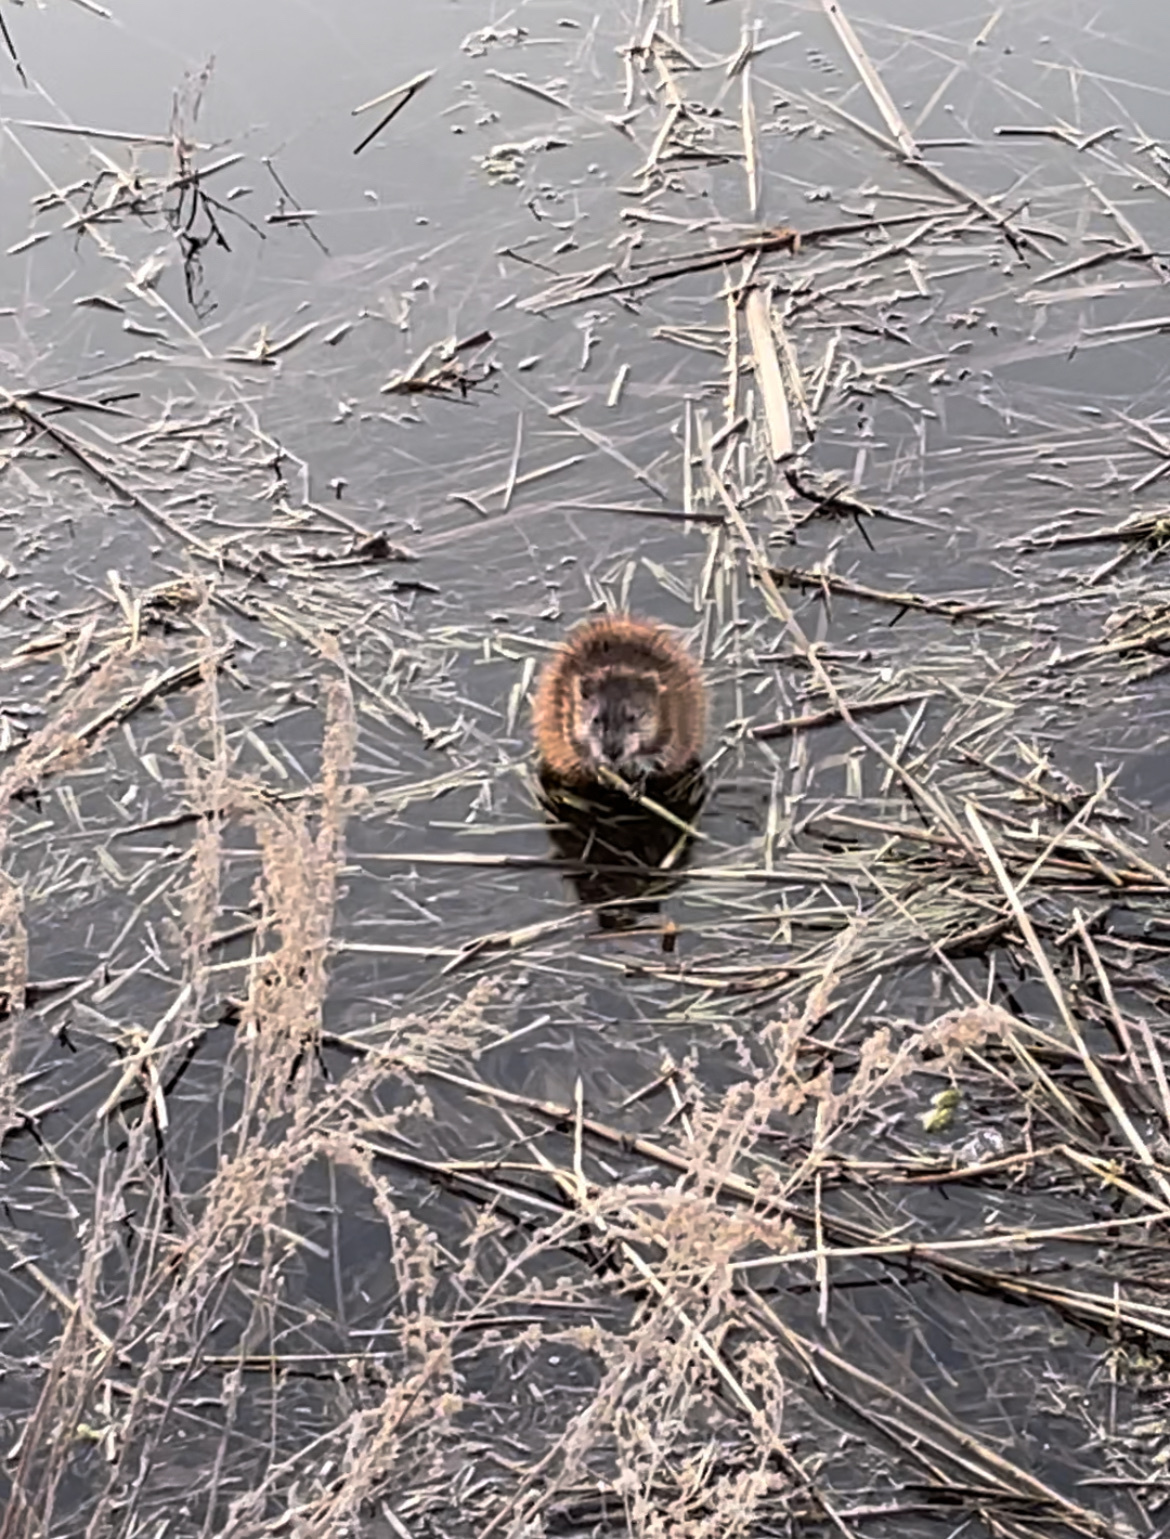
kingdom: Animalia
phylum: Chordata
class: Mammalia
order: Rodentia
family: Cricetidae
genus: Ondatra
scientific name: Ondatra zibethicus
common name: Muskrat
